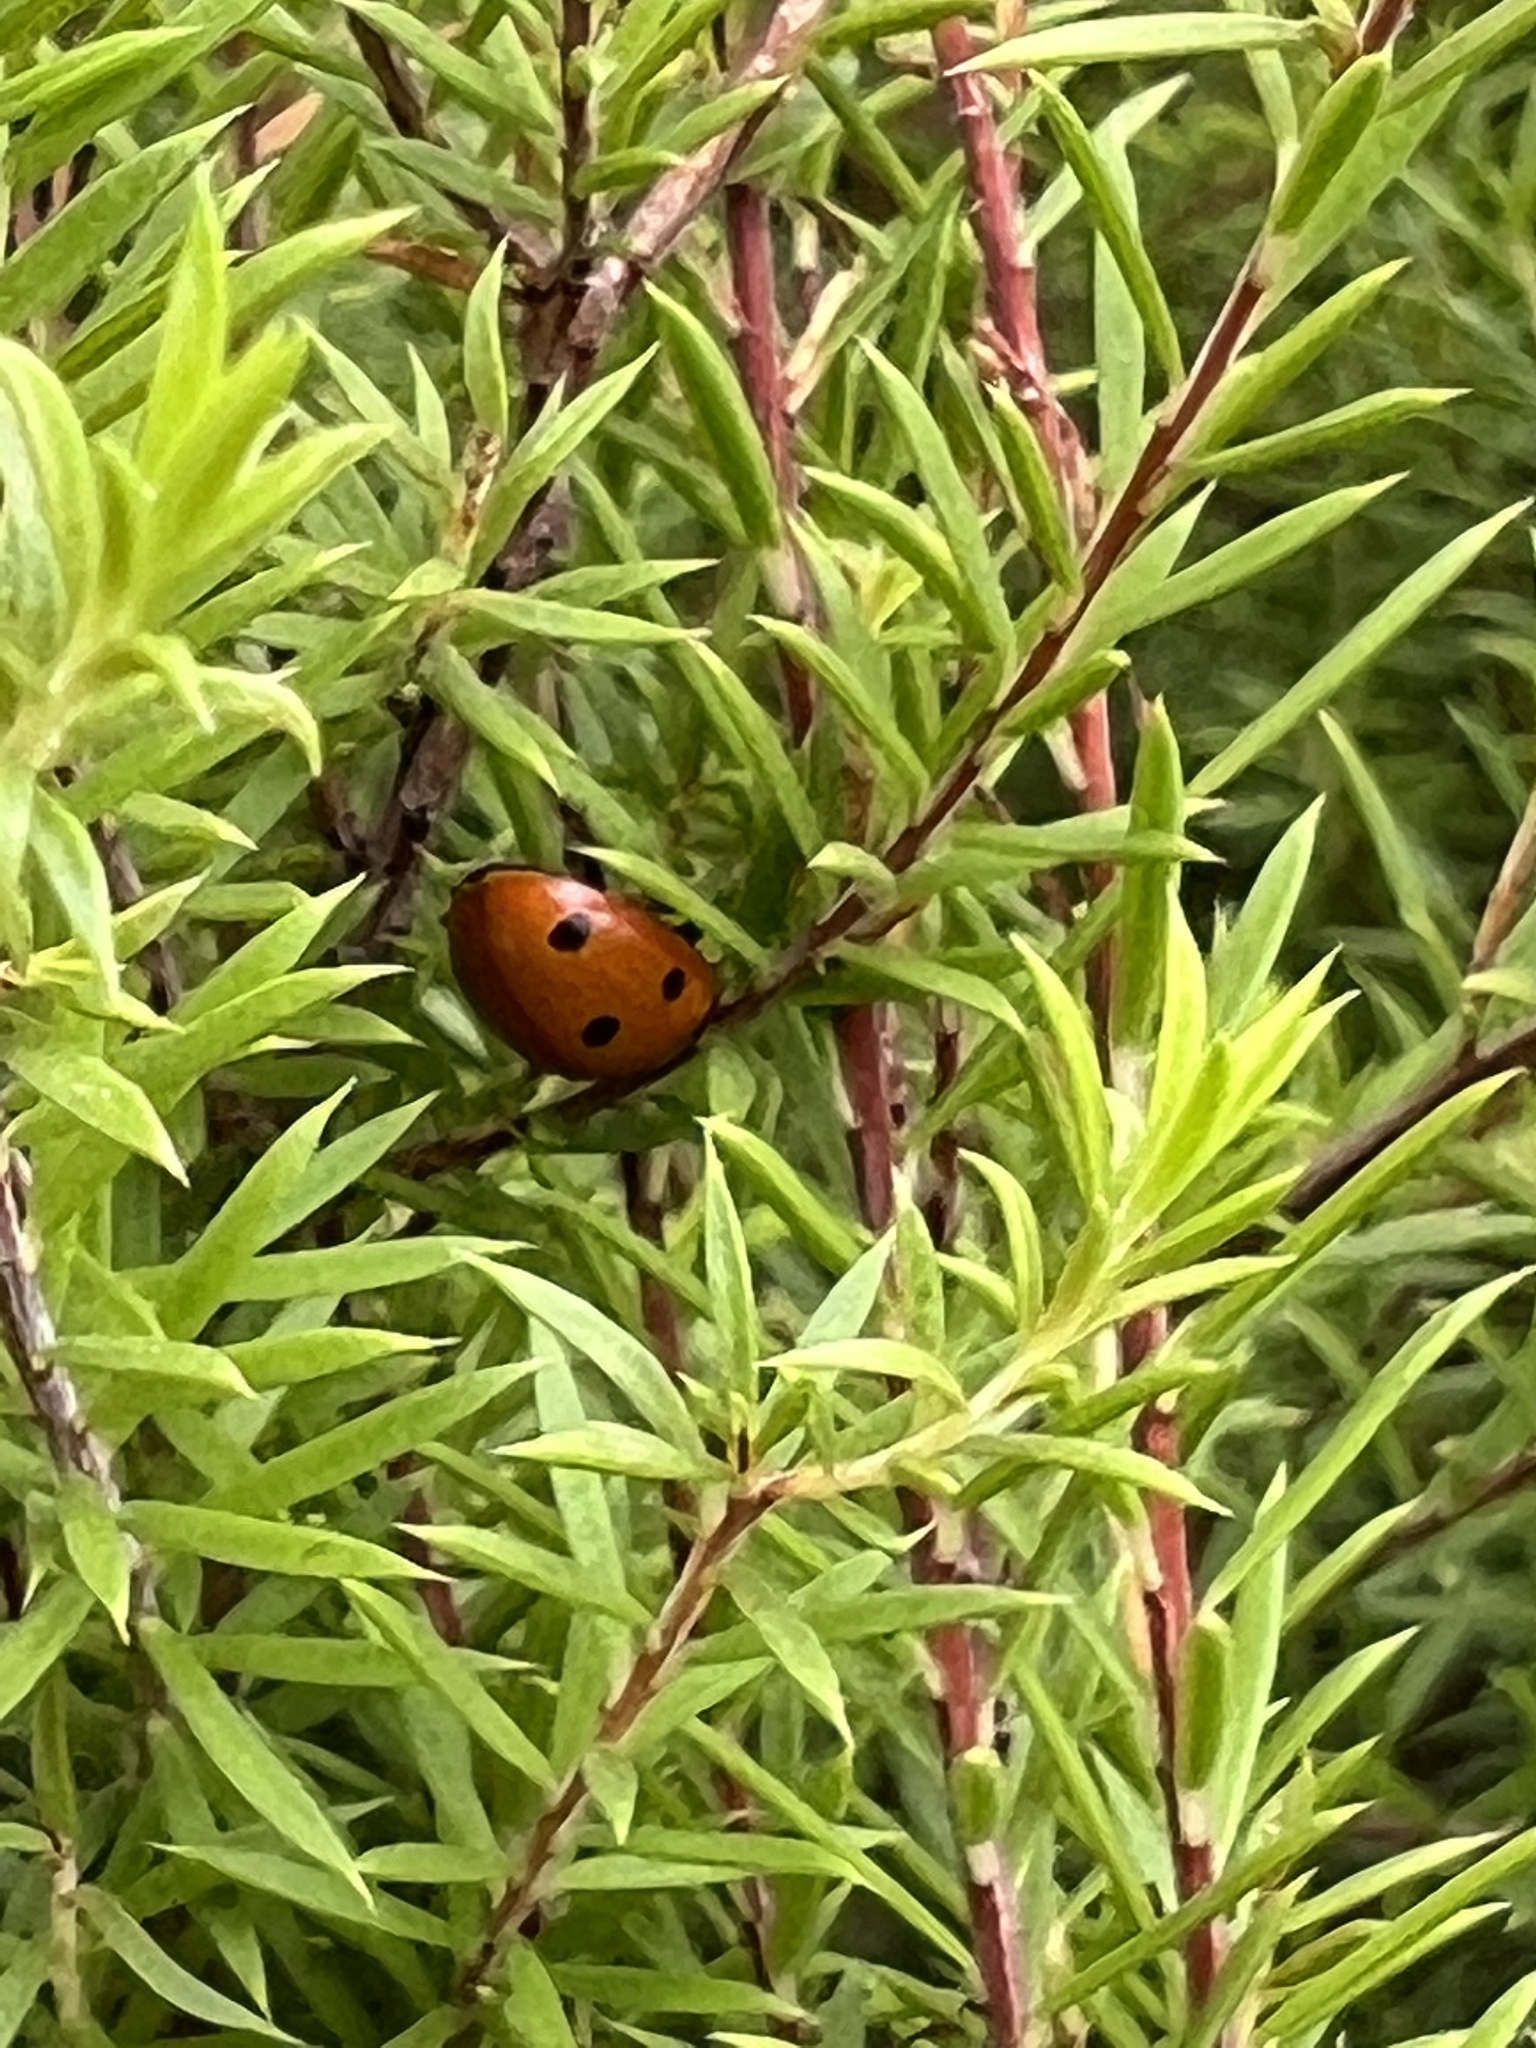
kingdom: Animalia
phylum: Arthropoda
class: Insecta
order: Coleoptera
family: Coccinellidae
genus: Coccinella
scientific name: Coccinella septempunctata
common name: Sevenspotted lady beetle
